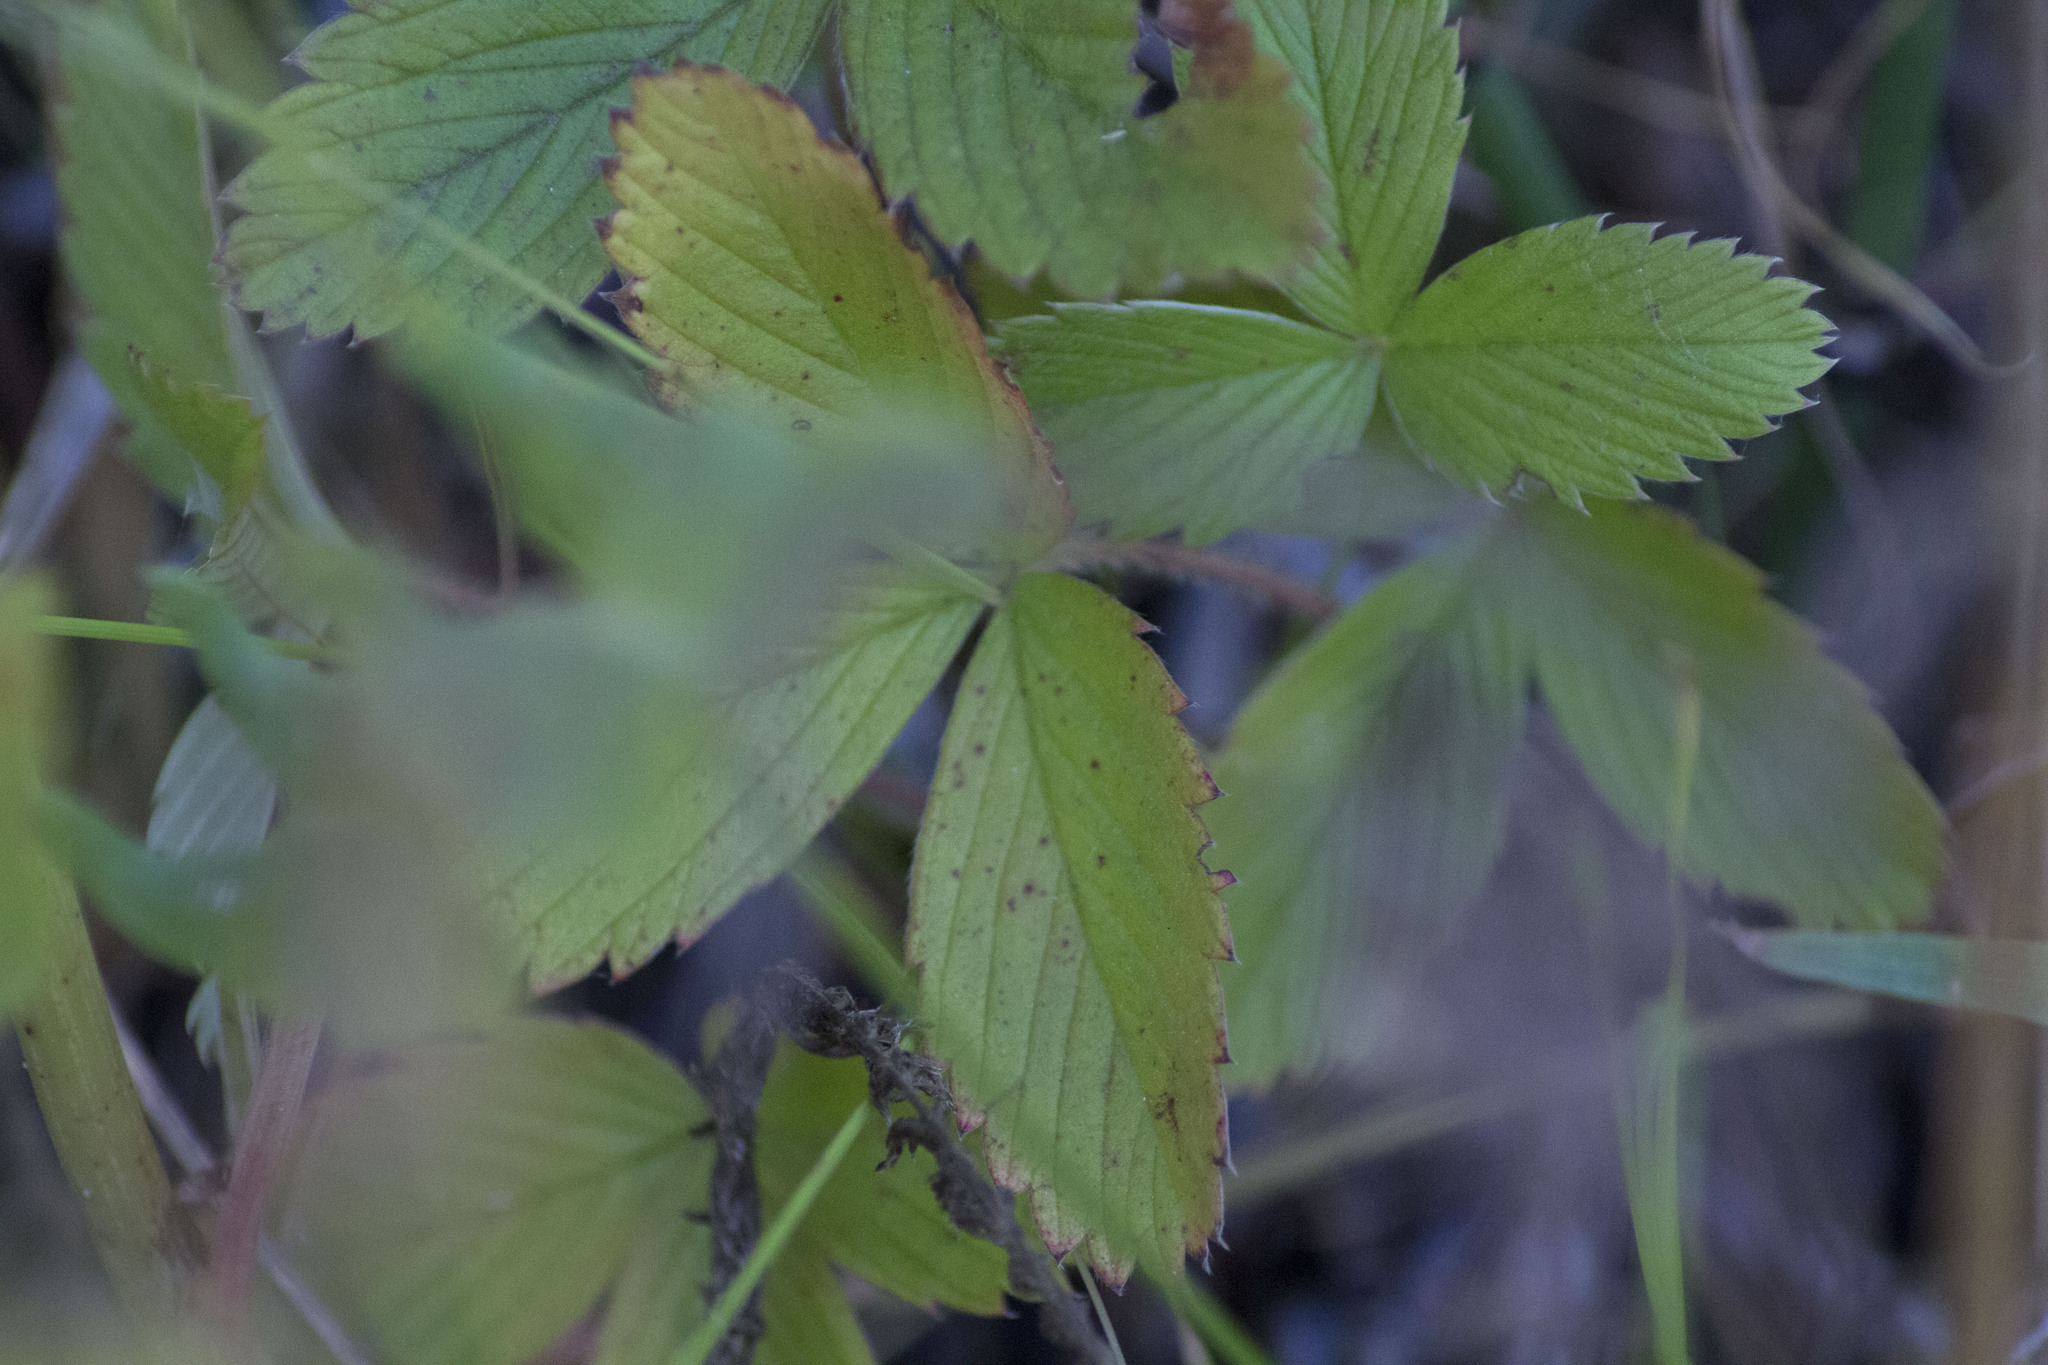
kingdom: Plantae
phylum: Tracheophyta
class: Magnoliopsida
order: Rosales
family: Rosaceae
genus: Fragaria
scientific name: Fragaria viridis
